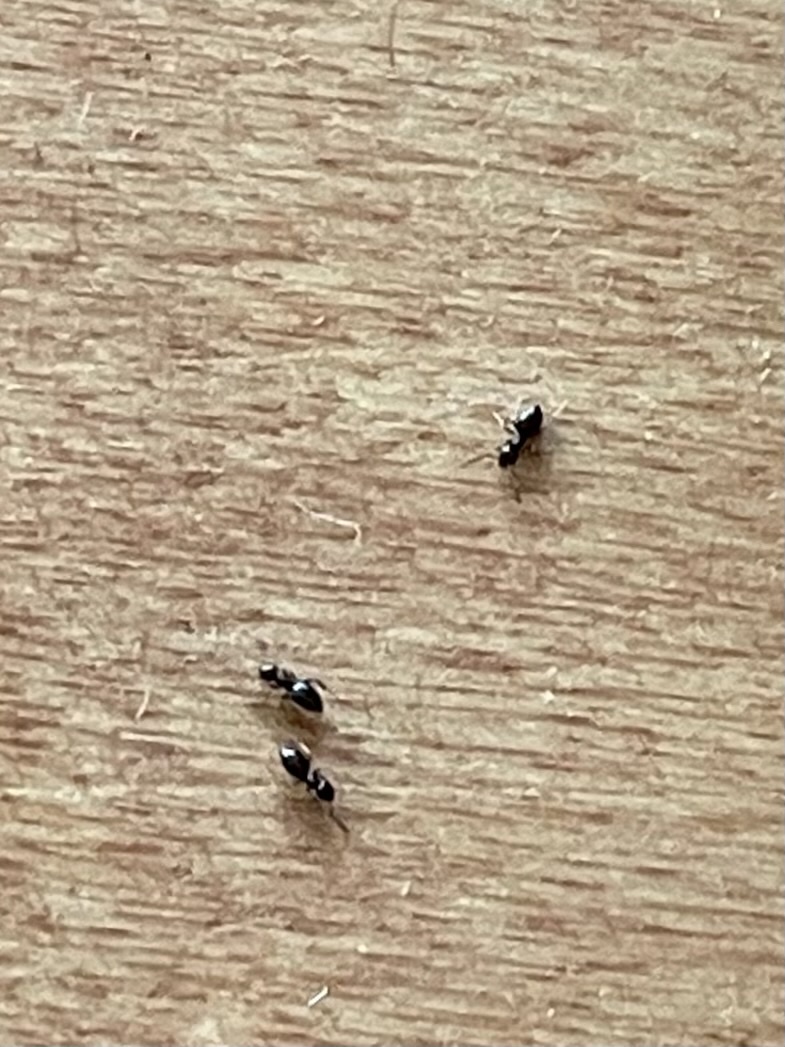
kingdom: Animalia
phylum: Arthropoda
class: Insecta
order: Hymenoptera
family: Formicidae
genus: Brachymyrmex
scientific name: Brachymyrmex patagonicus
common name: Dark rover ant
